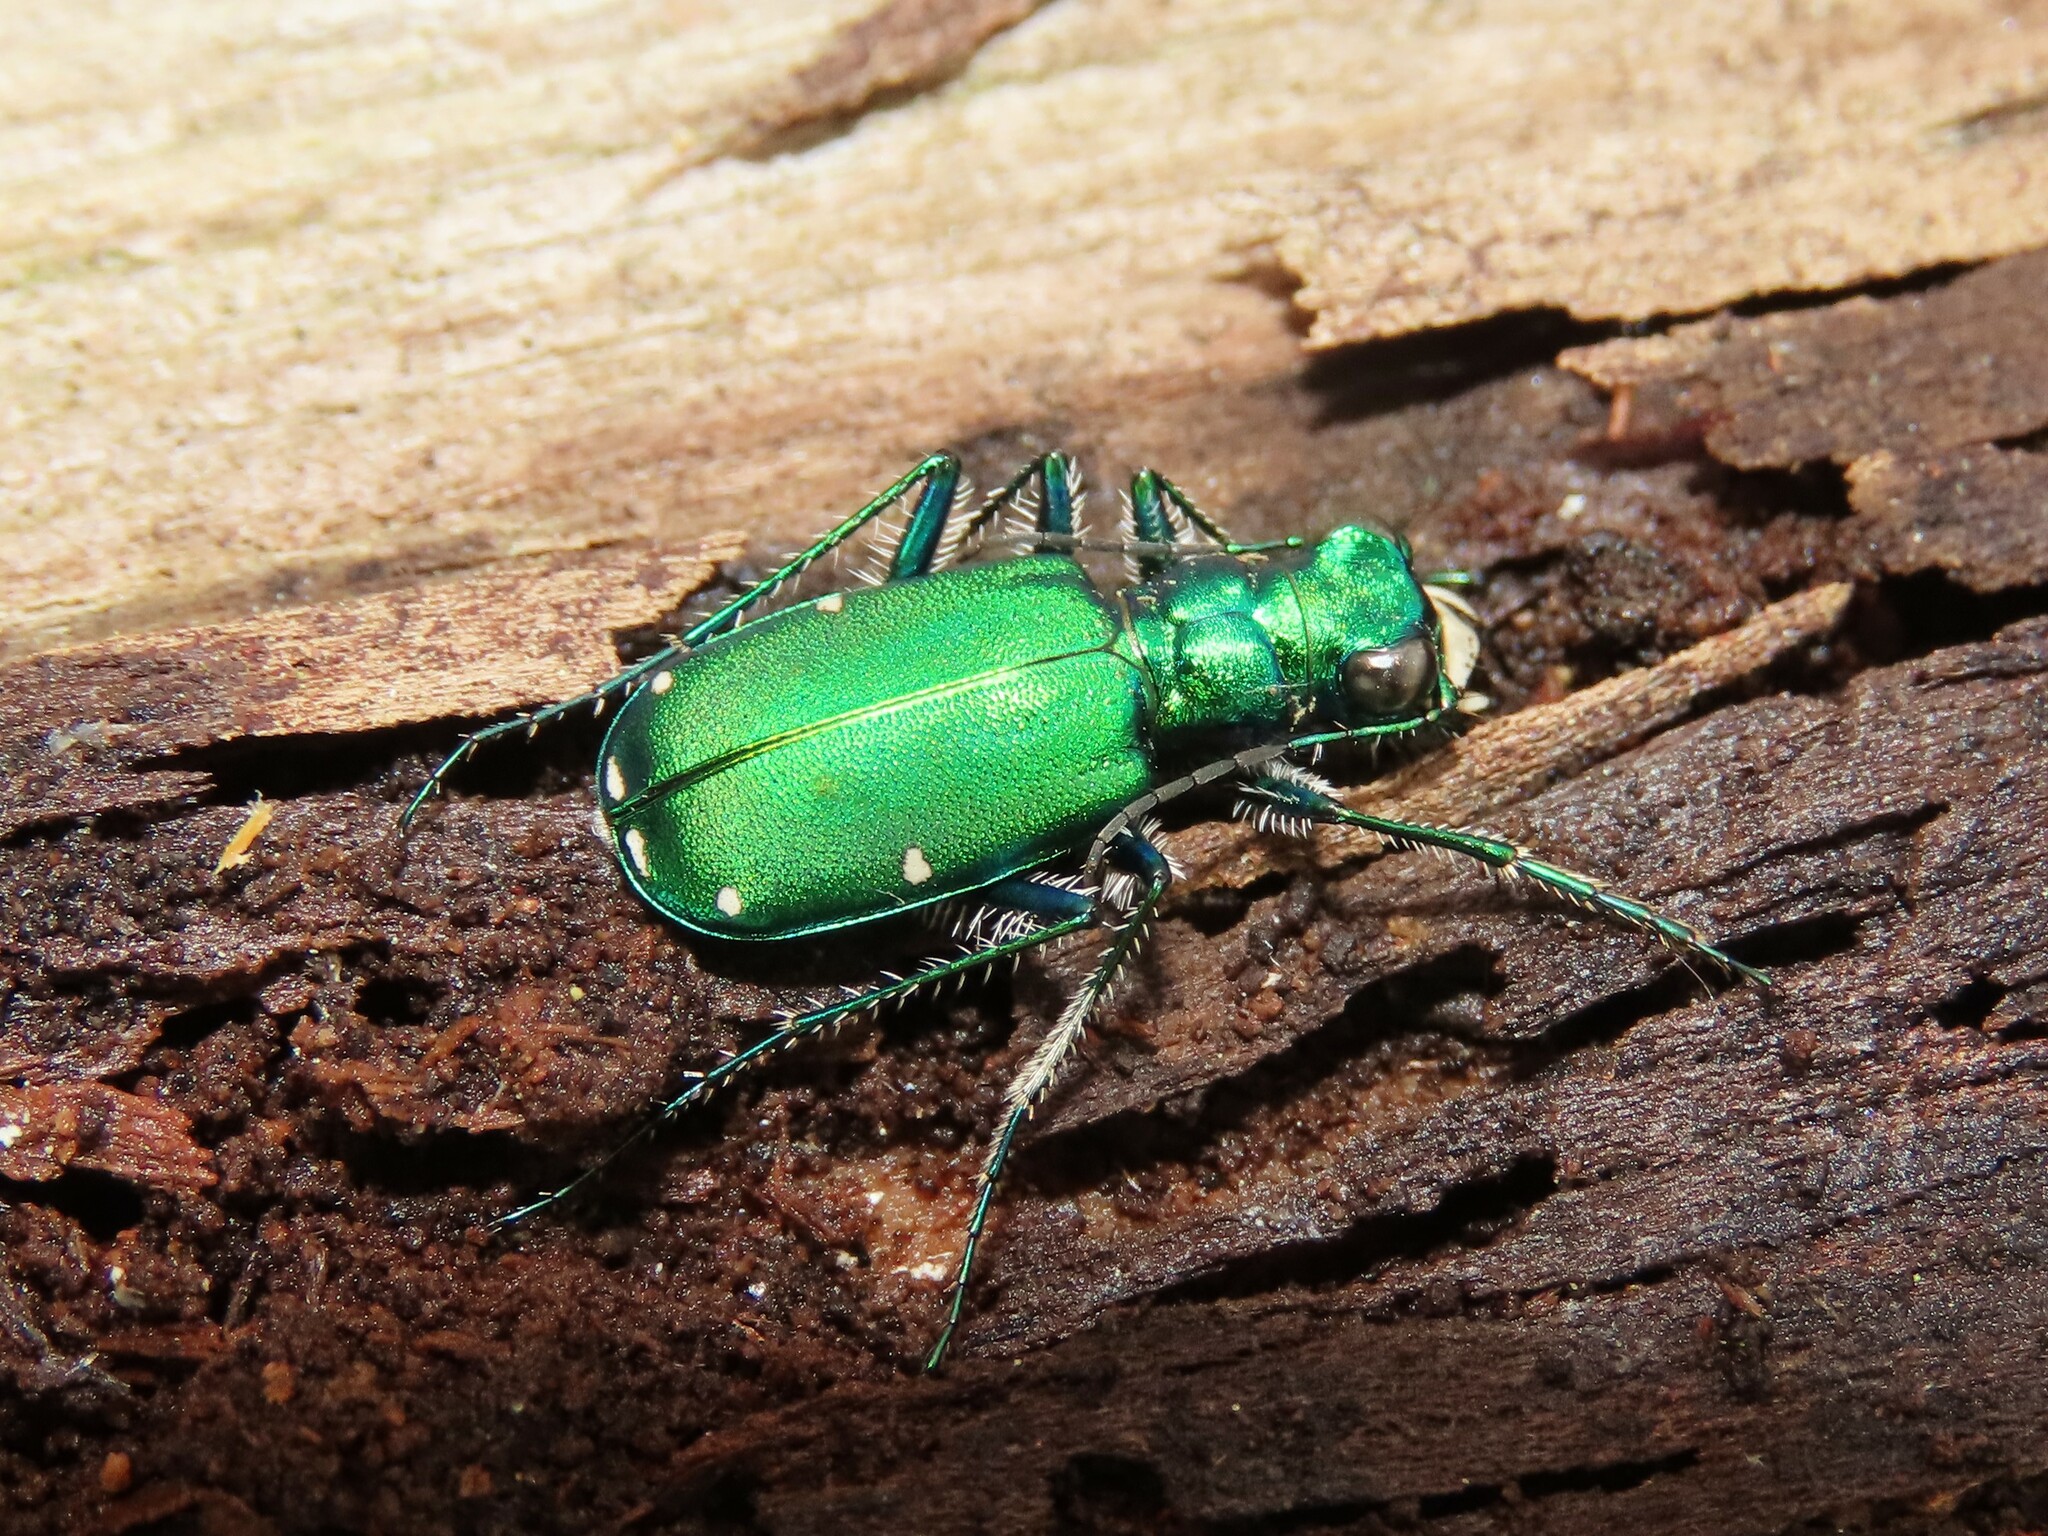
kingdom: Animalia
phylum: Arthropoda
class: Insecta
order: Coleoptera
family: Carabidae
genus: Cicindela
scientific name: Cicindela sexguttata
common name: Six-spotted tiger beetle
